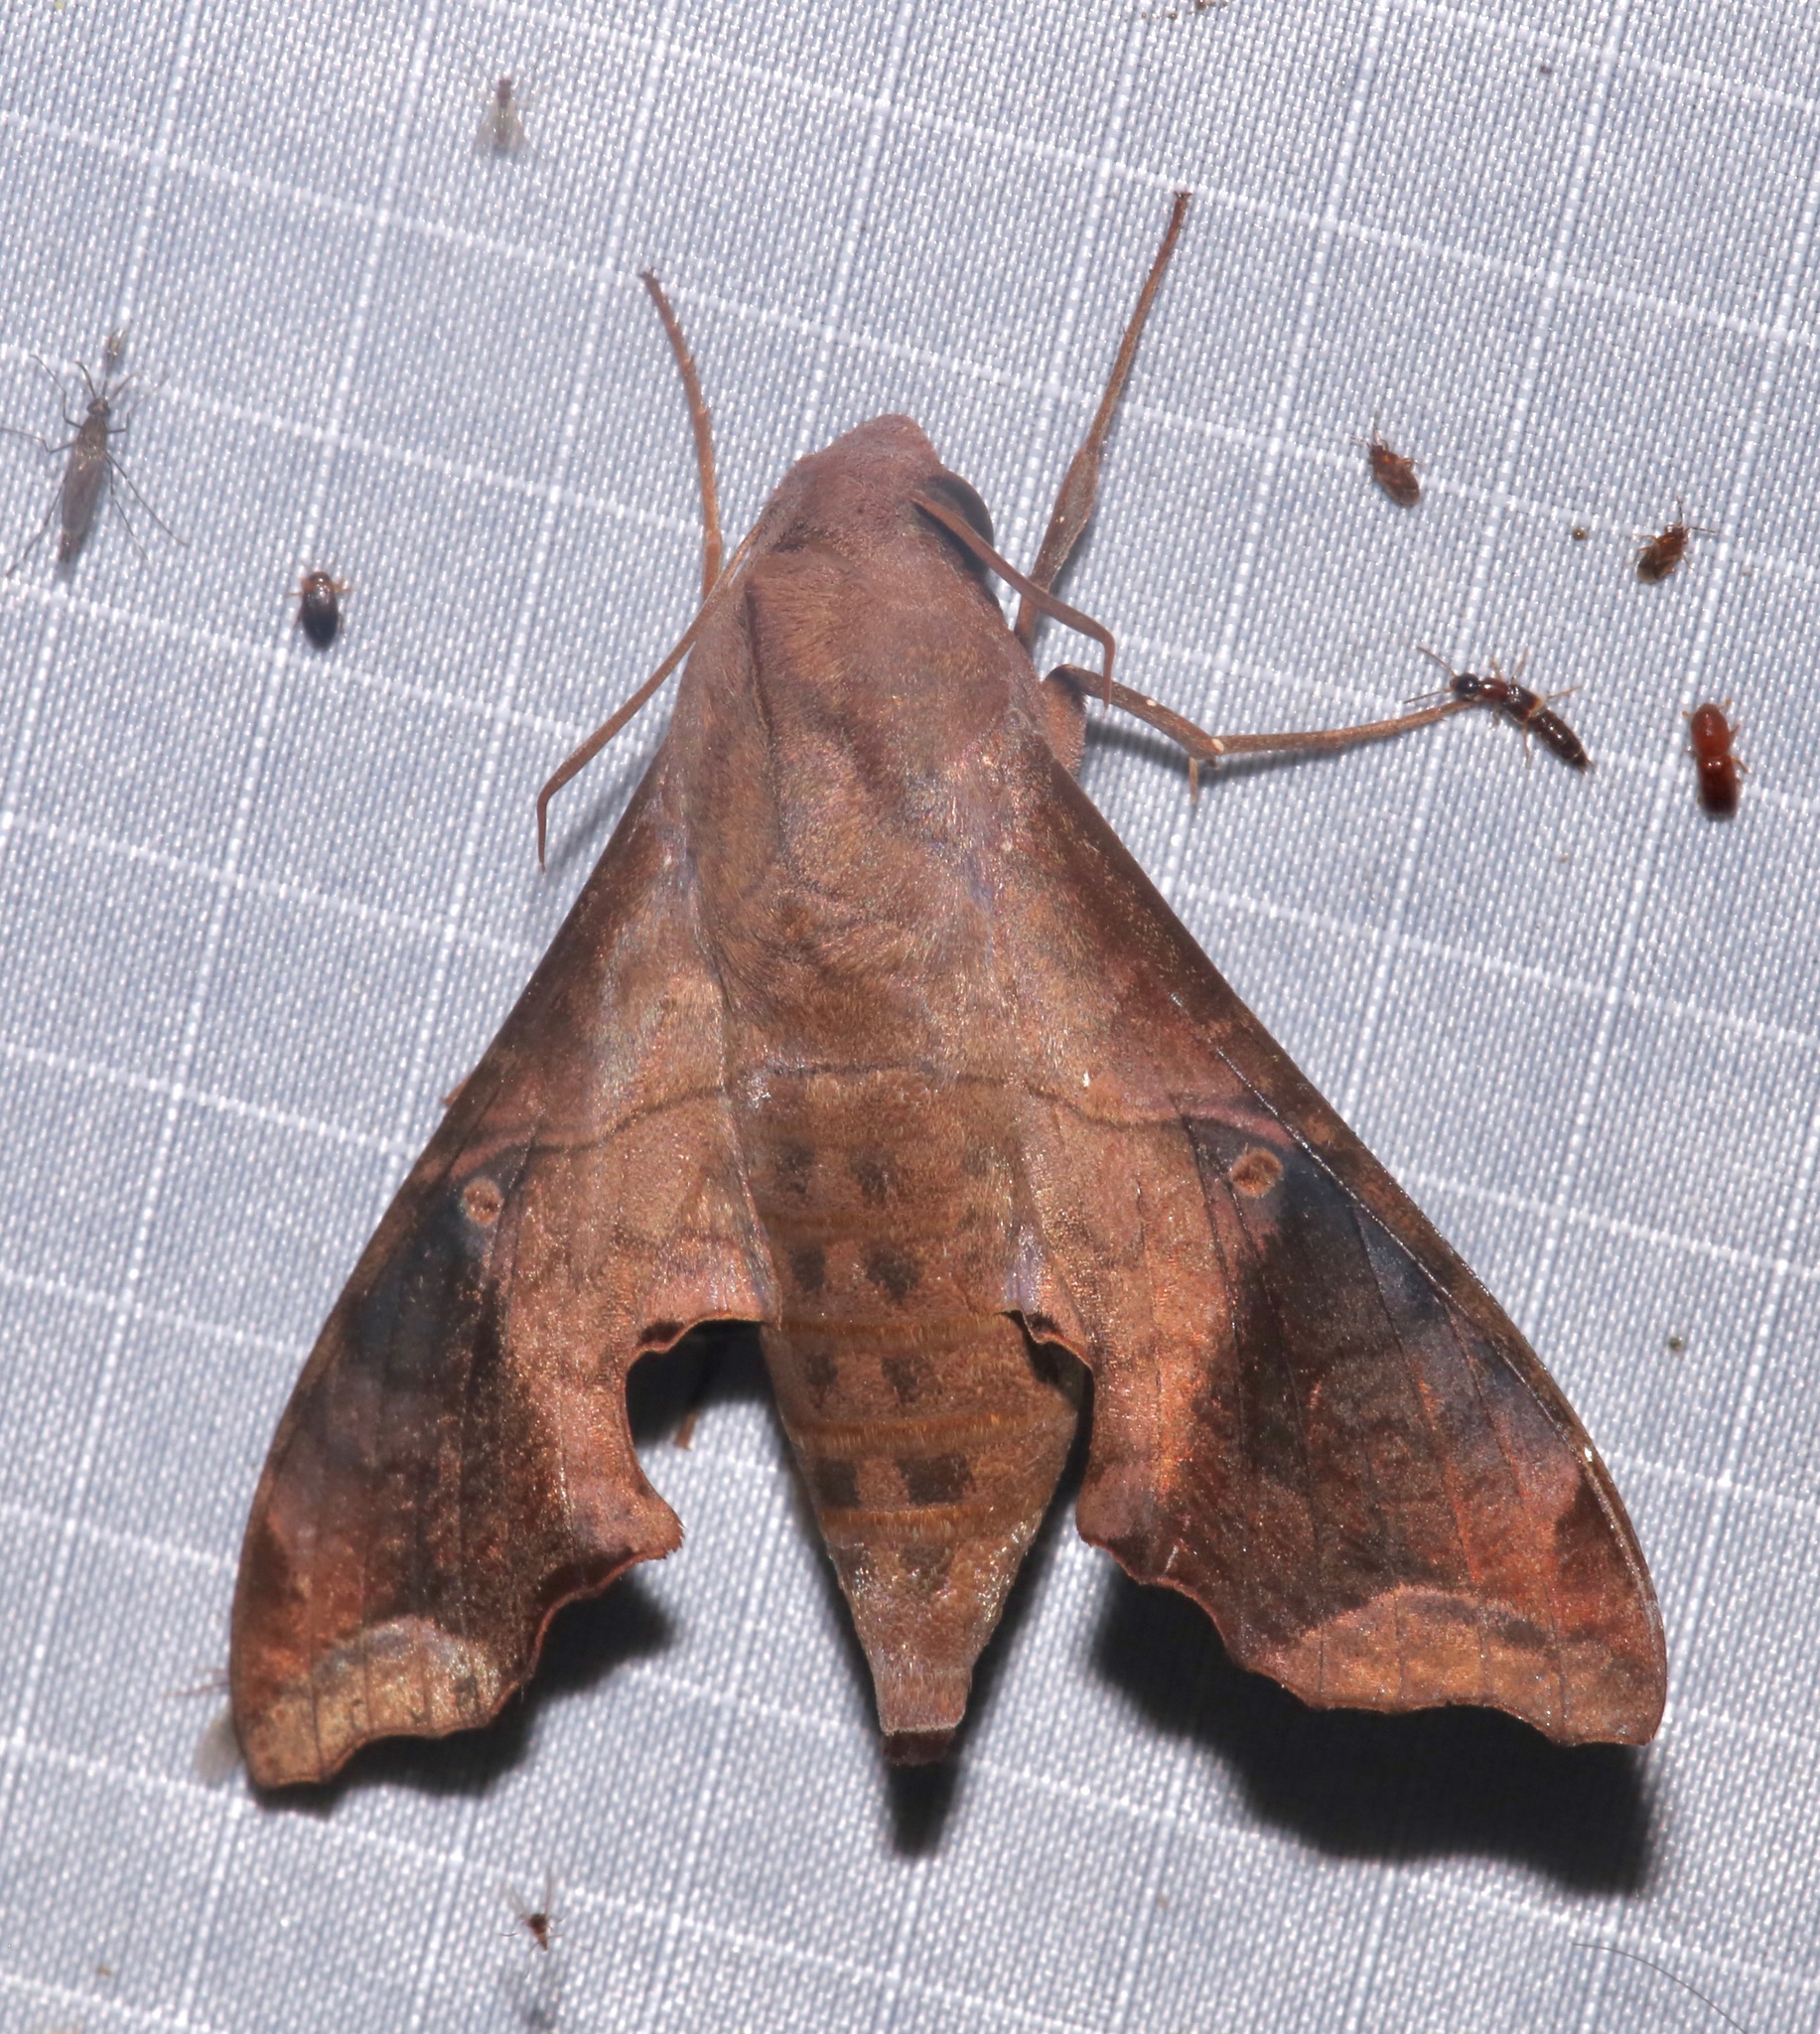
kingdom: Animalia
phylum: Arthropoda
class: Insecta
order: Lepidoptera
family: Sphingidae
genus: Enyo
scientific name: Enyo lugubris
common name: Mournful sphinx
